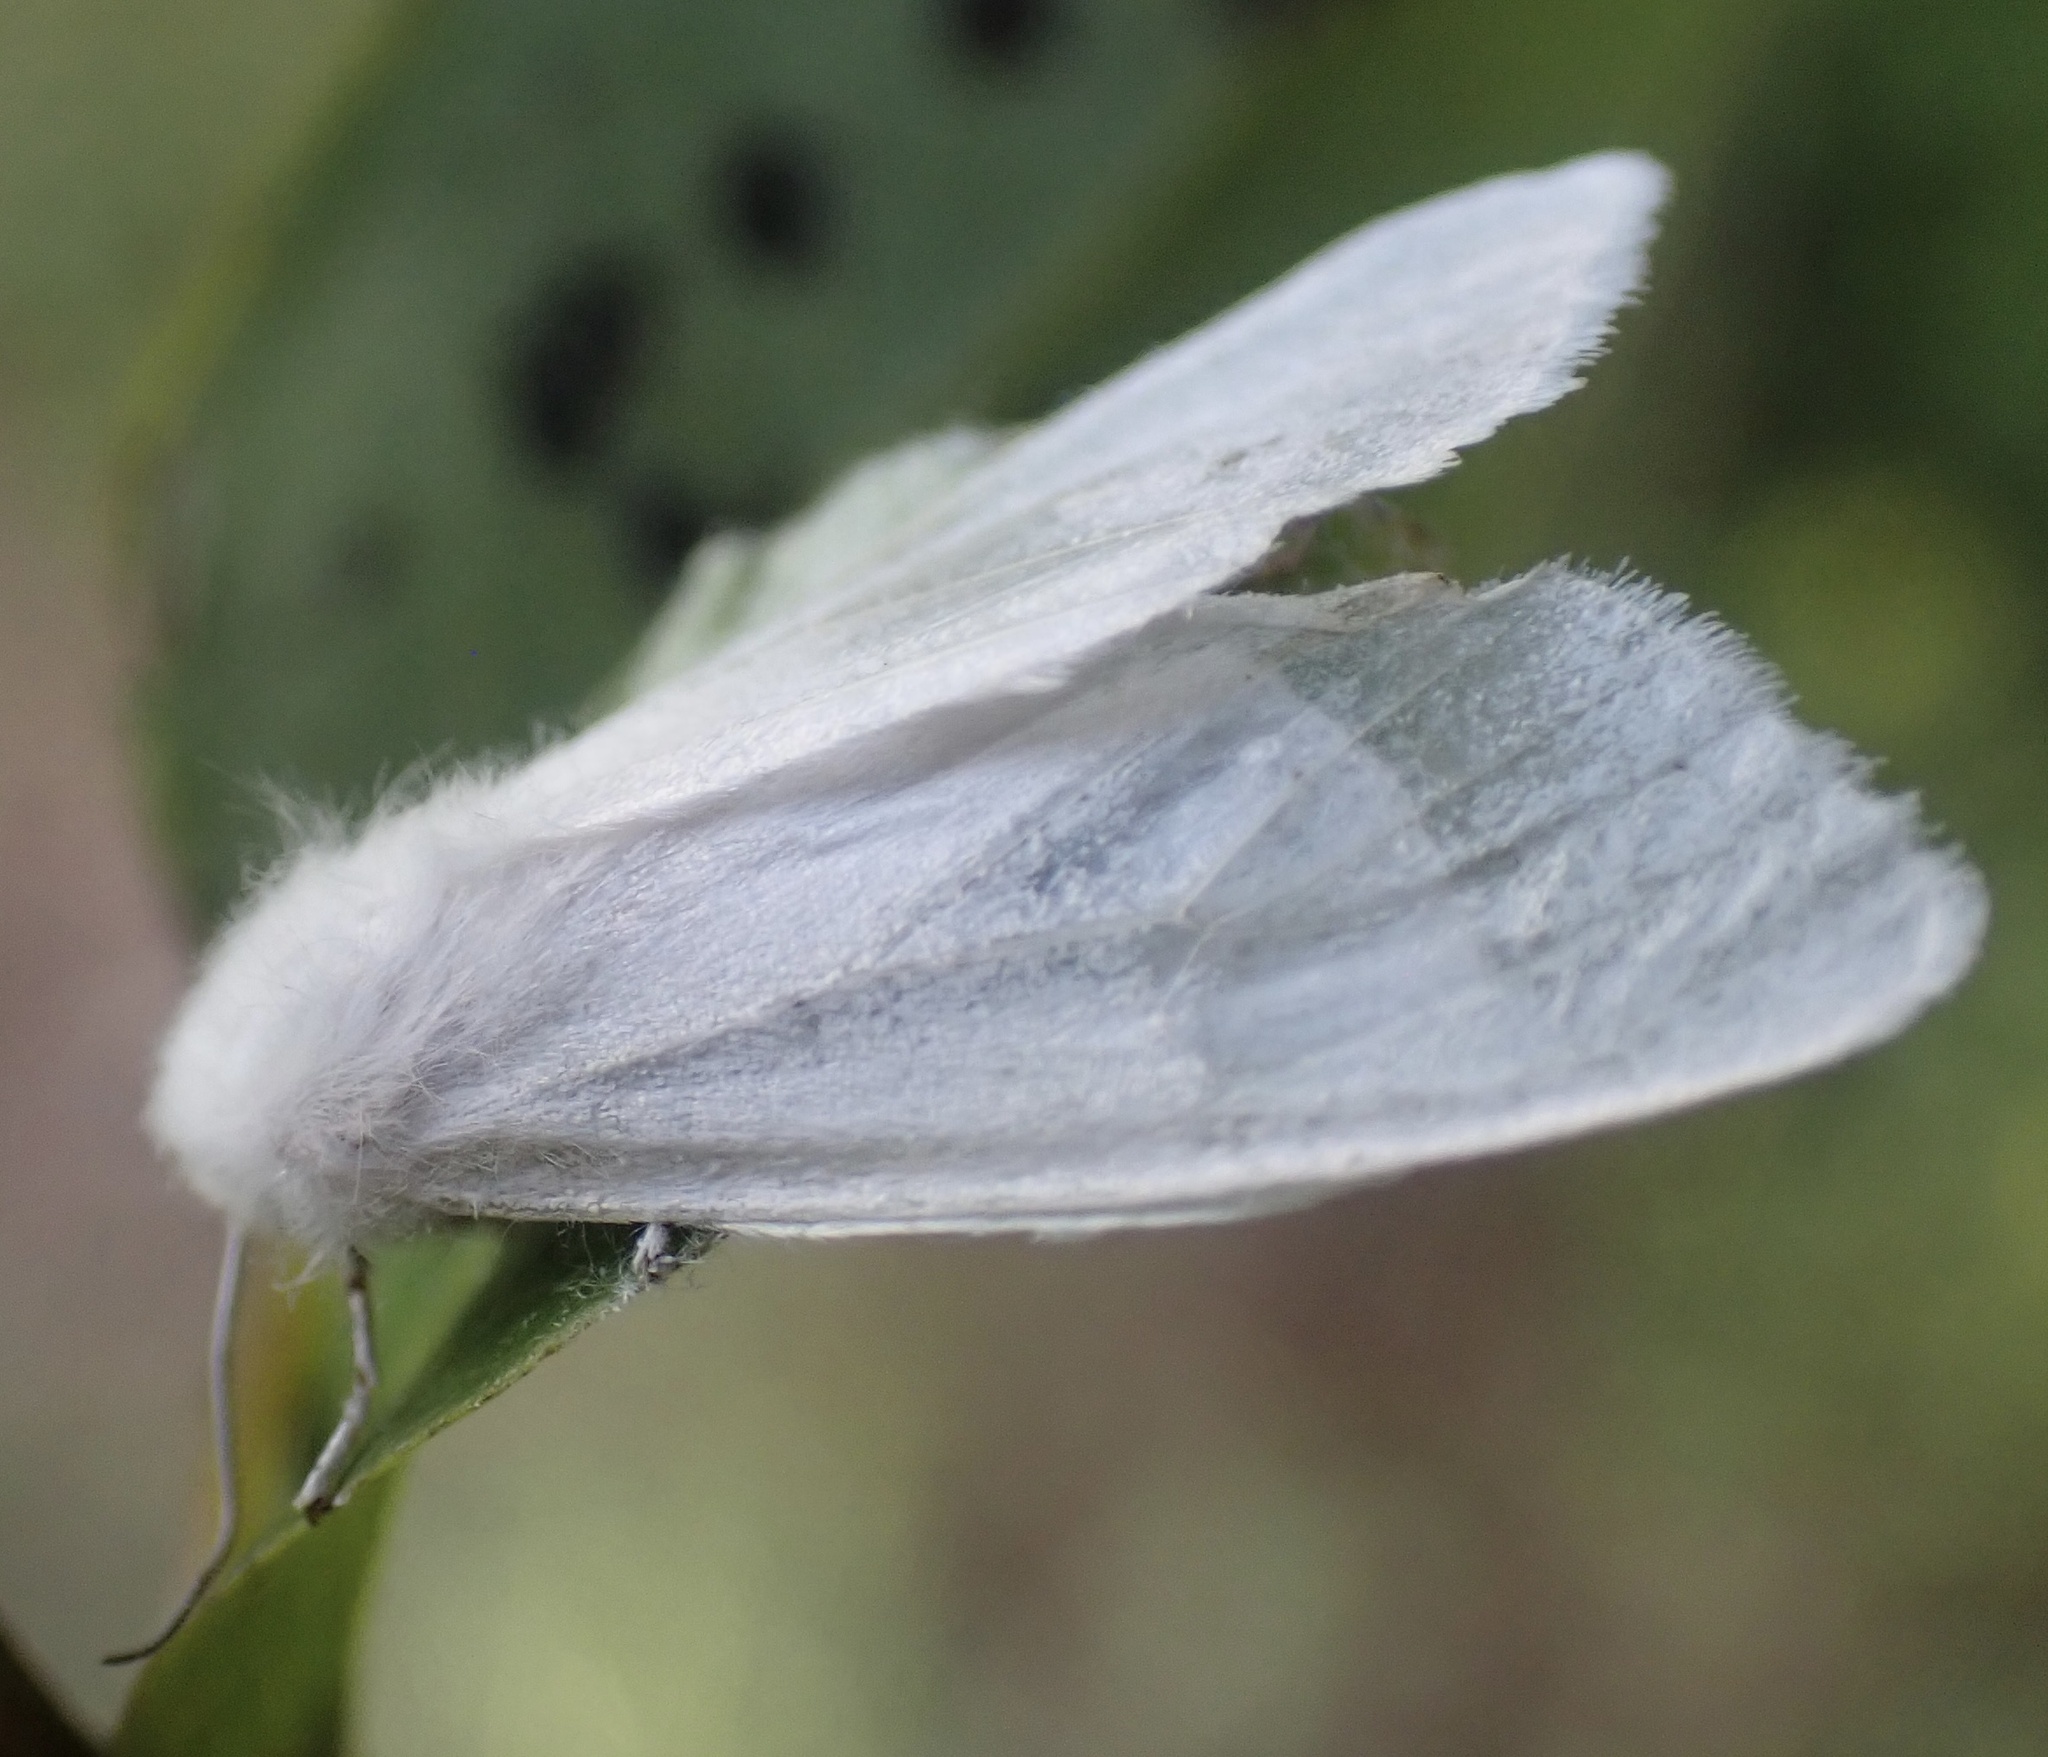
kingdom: Animalia
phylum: Arthropoda
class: Insecta
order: Lepidoptera
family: Erebidae
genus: Hyphantria
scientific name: Hyphantria cunea
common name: American white moth
